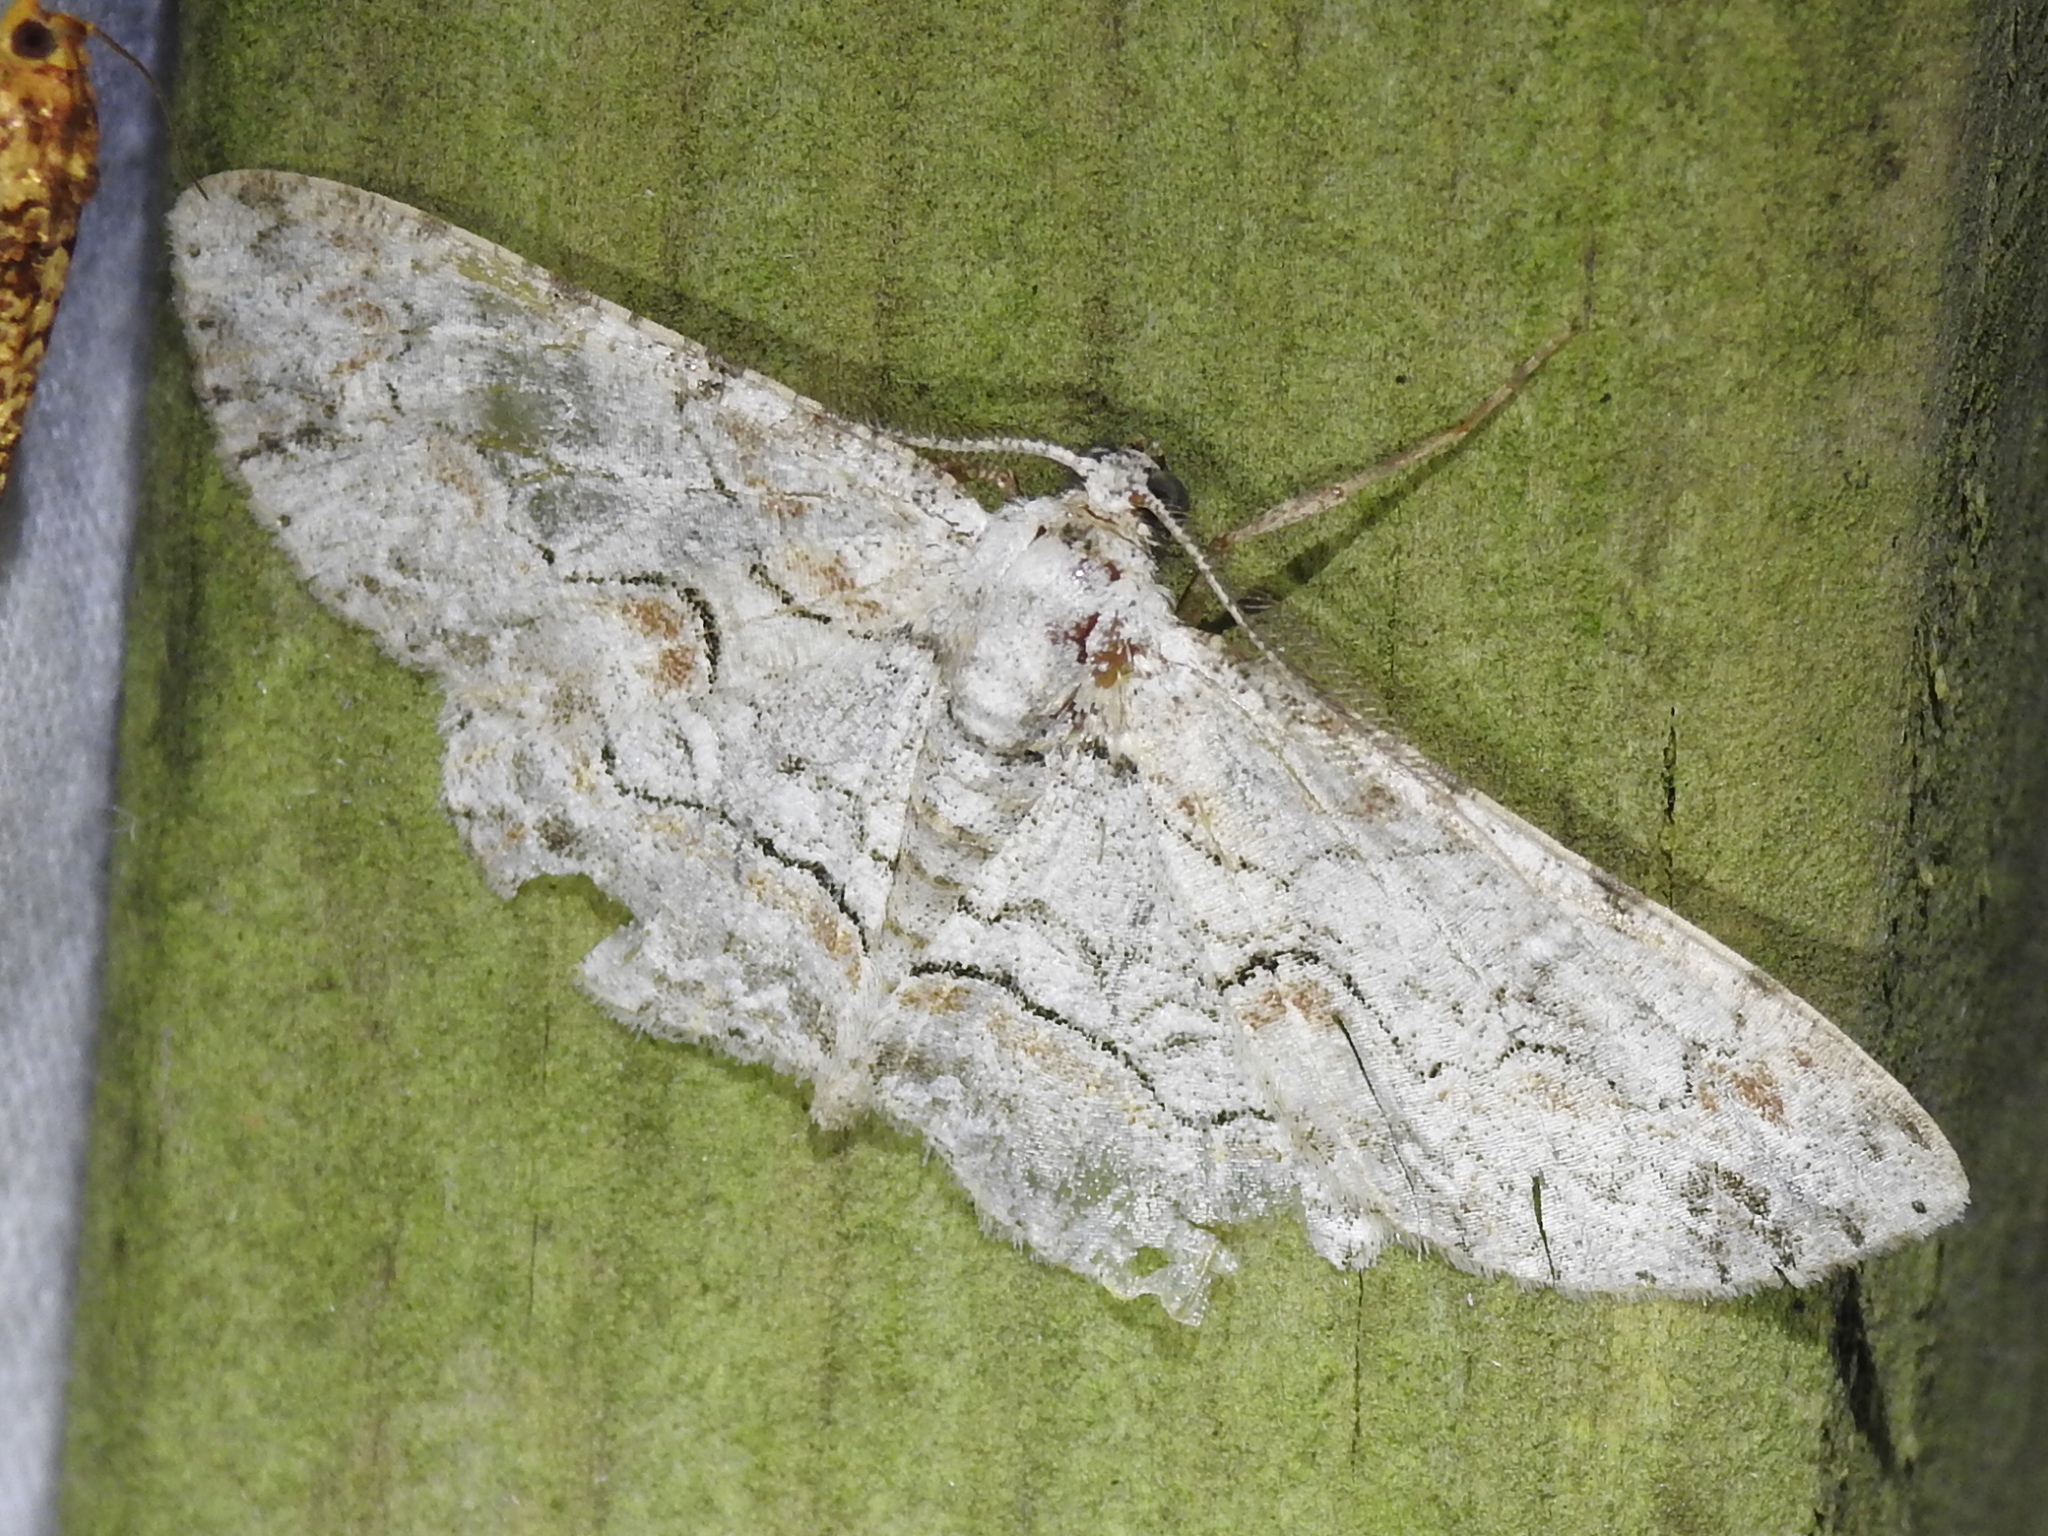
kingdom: Animalia
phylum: Arthropoda
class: Insecta
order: Lepidoptera
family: Geometridae
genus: Iridopsis
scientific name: Iridopsis defectaria
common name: Brown-shaded gray
